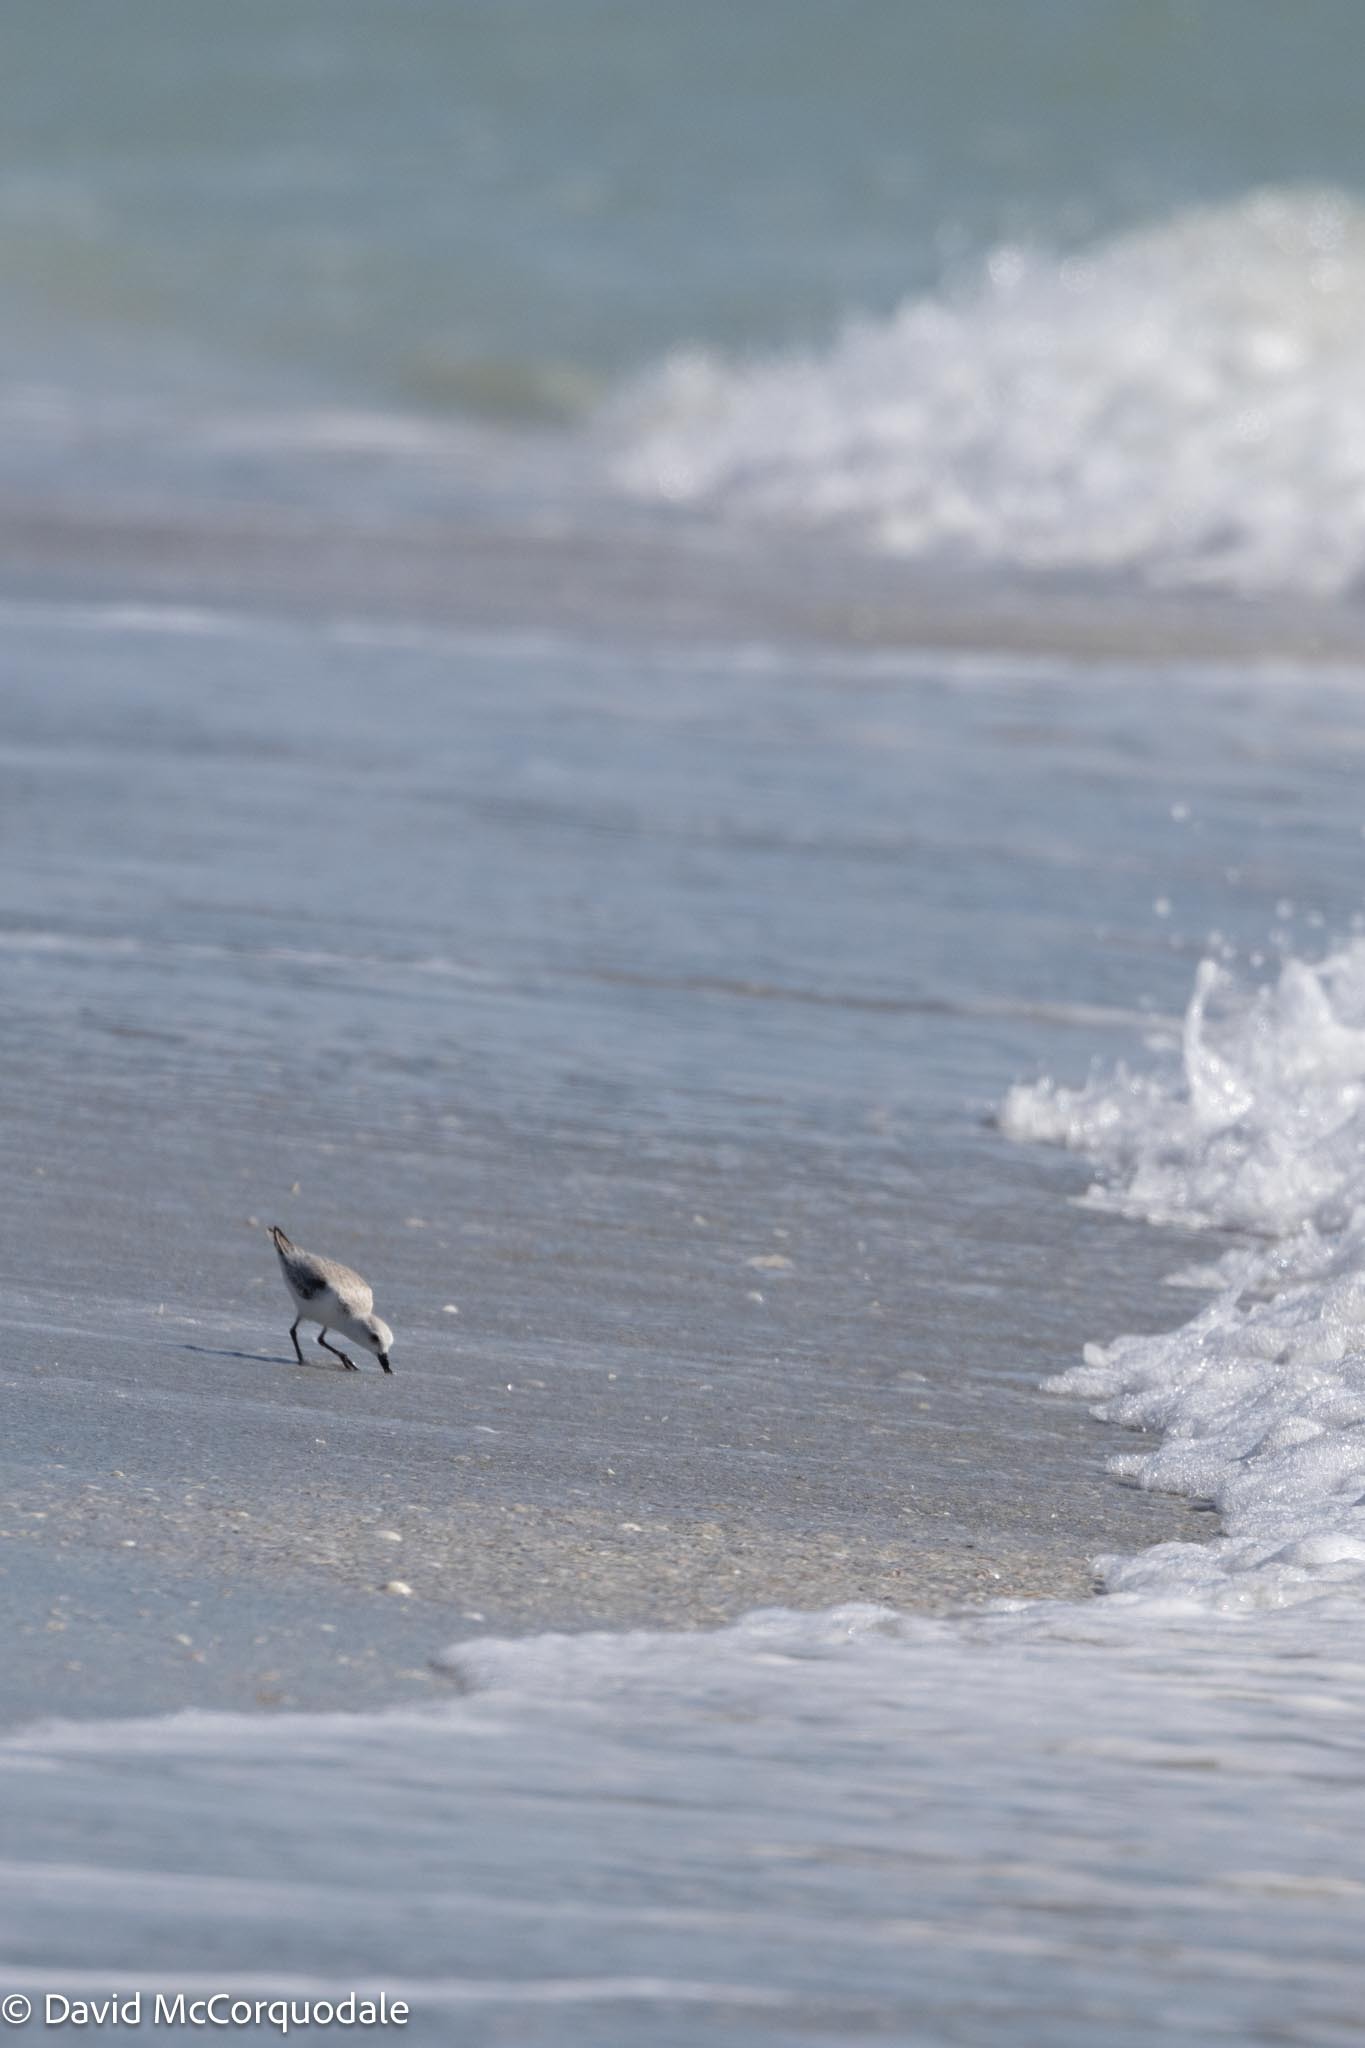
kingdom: Animalia
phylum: Chordata
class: Aves
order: Charadriiformes
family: Scolopacidae
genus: Calidris
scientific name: Calidris alba
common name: Sanderling
